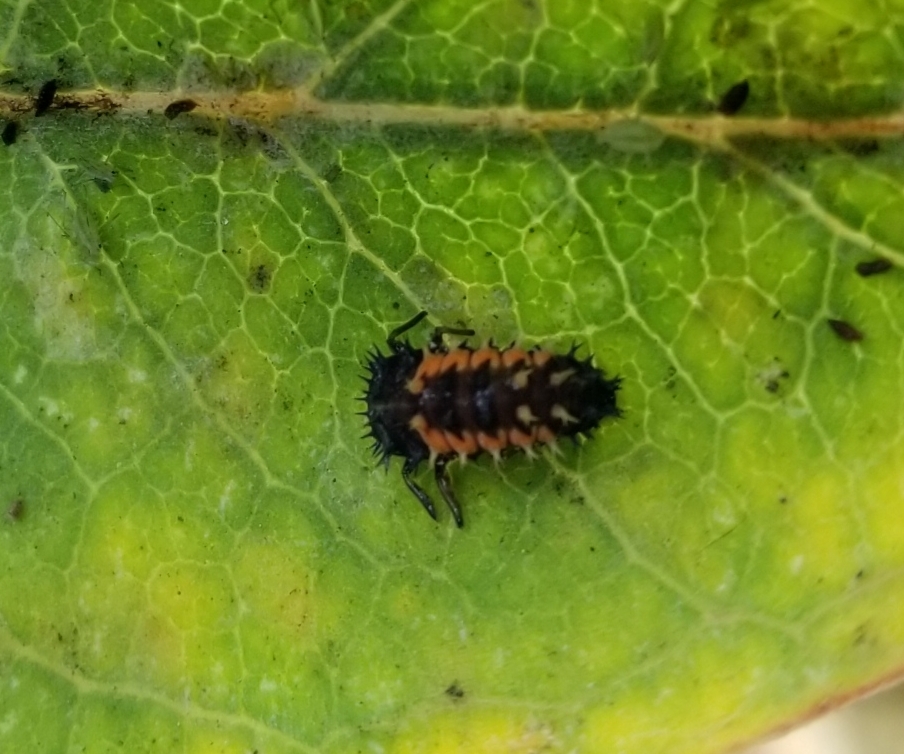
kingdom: Animalia
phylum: Arthropoda
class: Insecta
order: Coleoptera
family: Coccinellidae
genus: Harmonia
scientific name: Harmonia axyridis
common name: Harlequin ladybird
